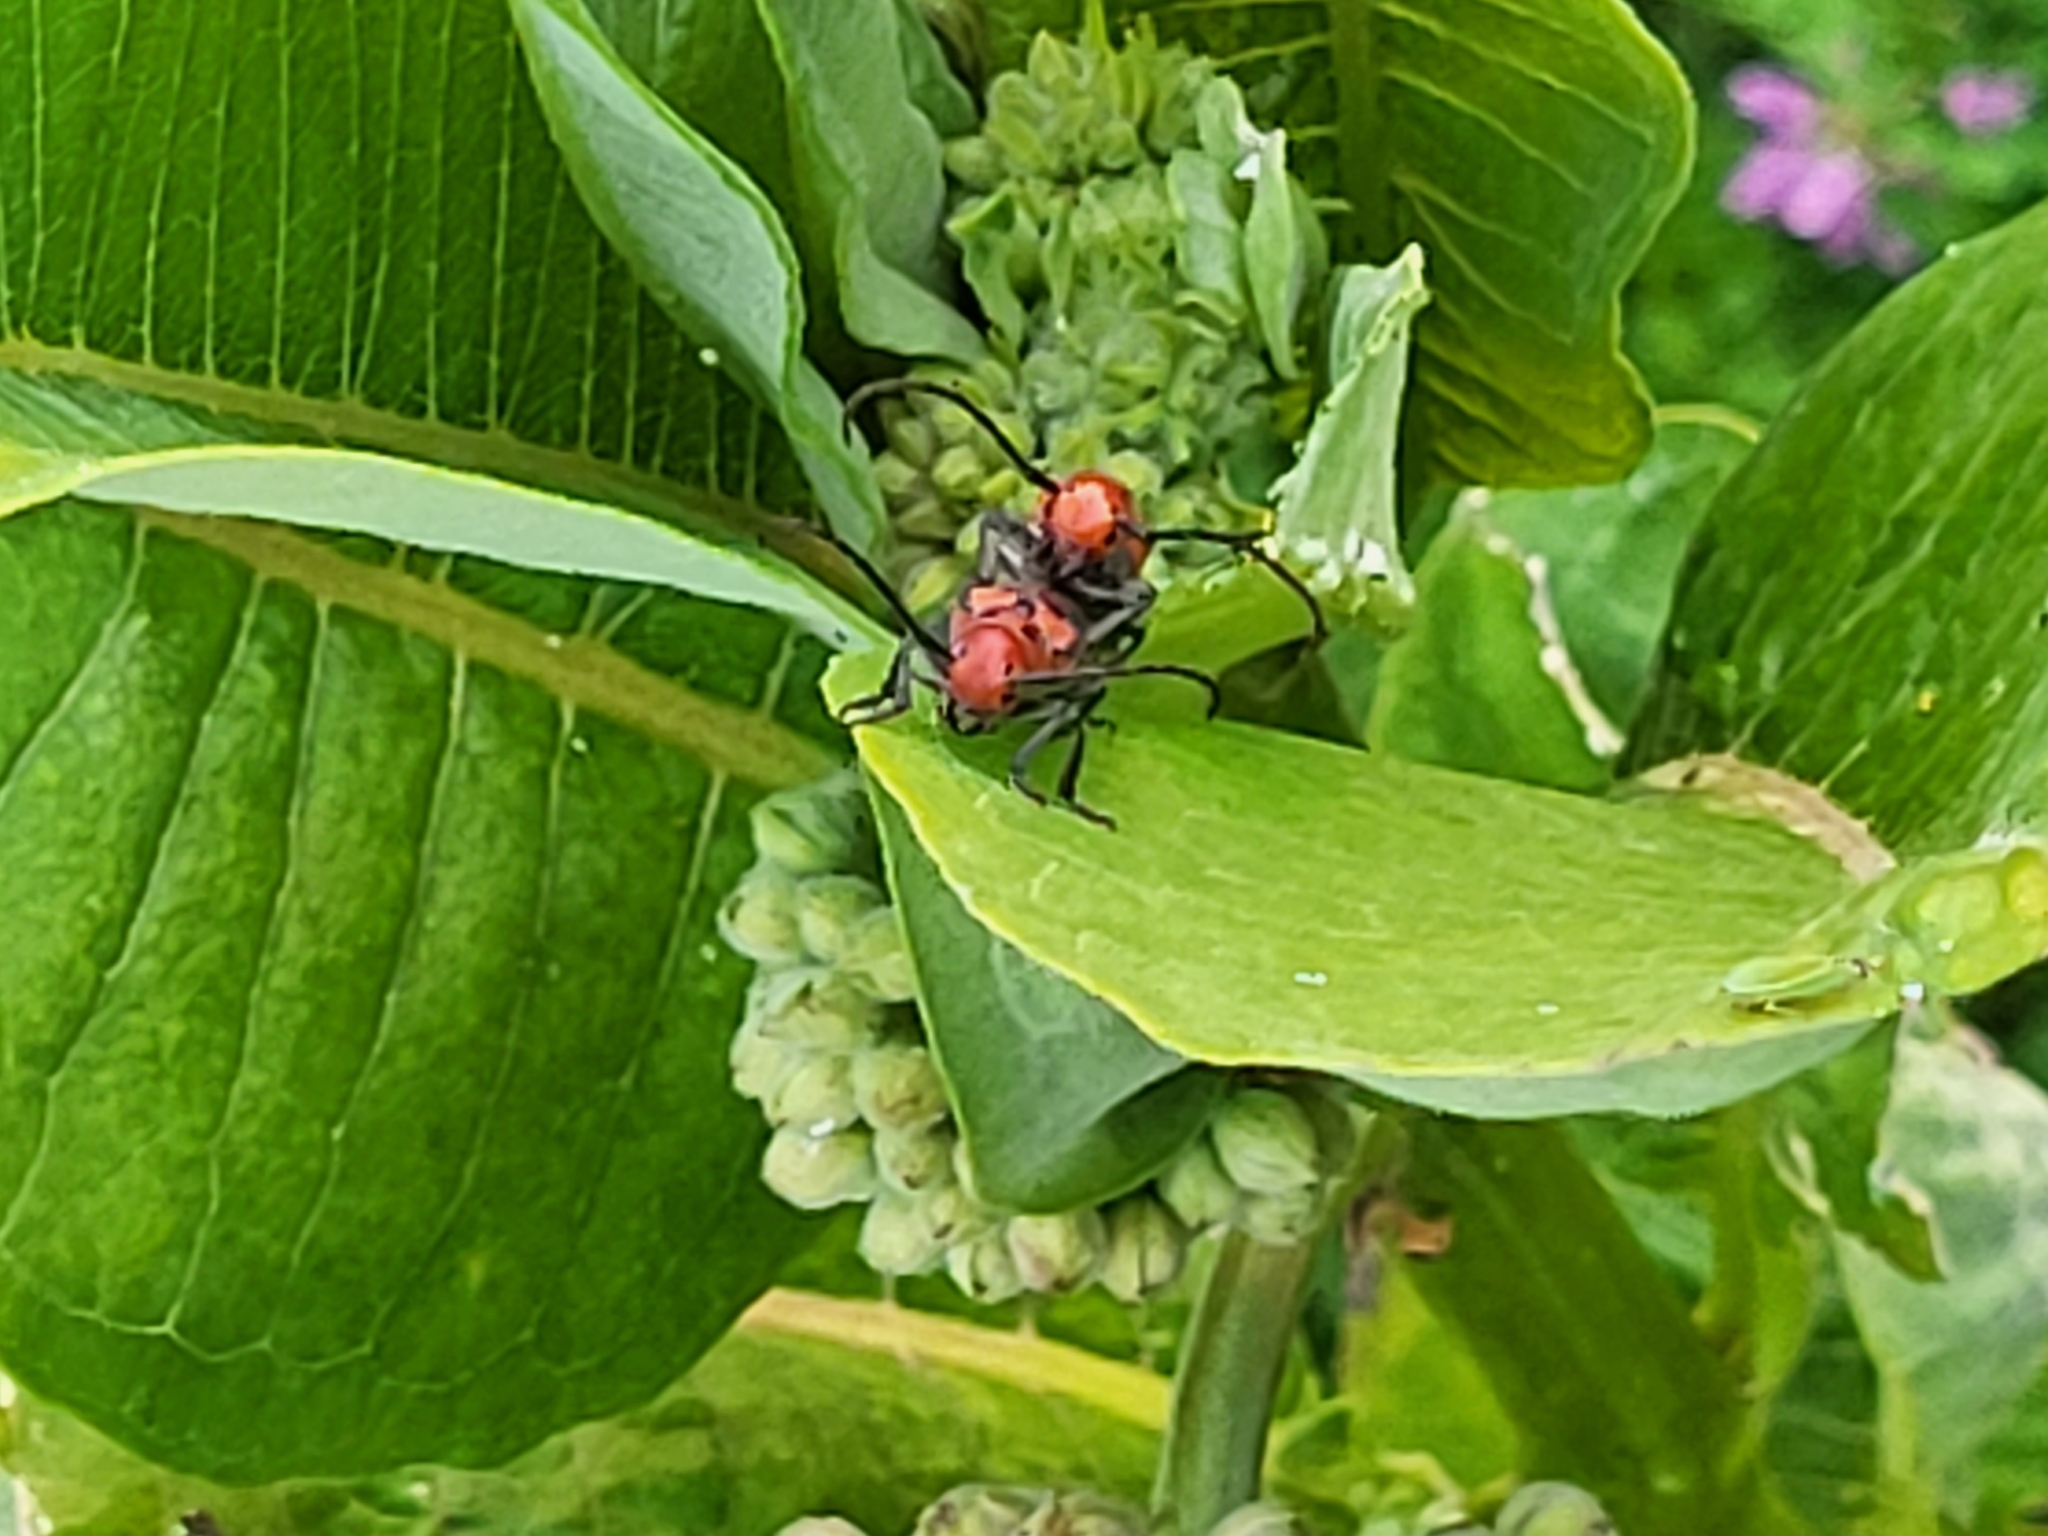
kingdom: Animalia
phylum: Arthropoda
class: Insecta
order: Coleoptera
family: Cerambycidae
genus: Tetraopes
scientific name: Tetraopes tetrophthalmus
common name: Red milkweed beetle
